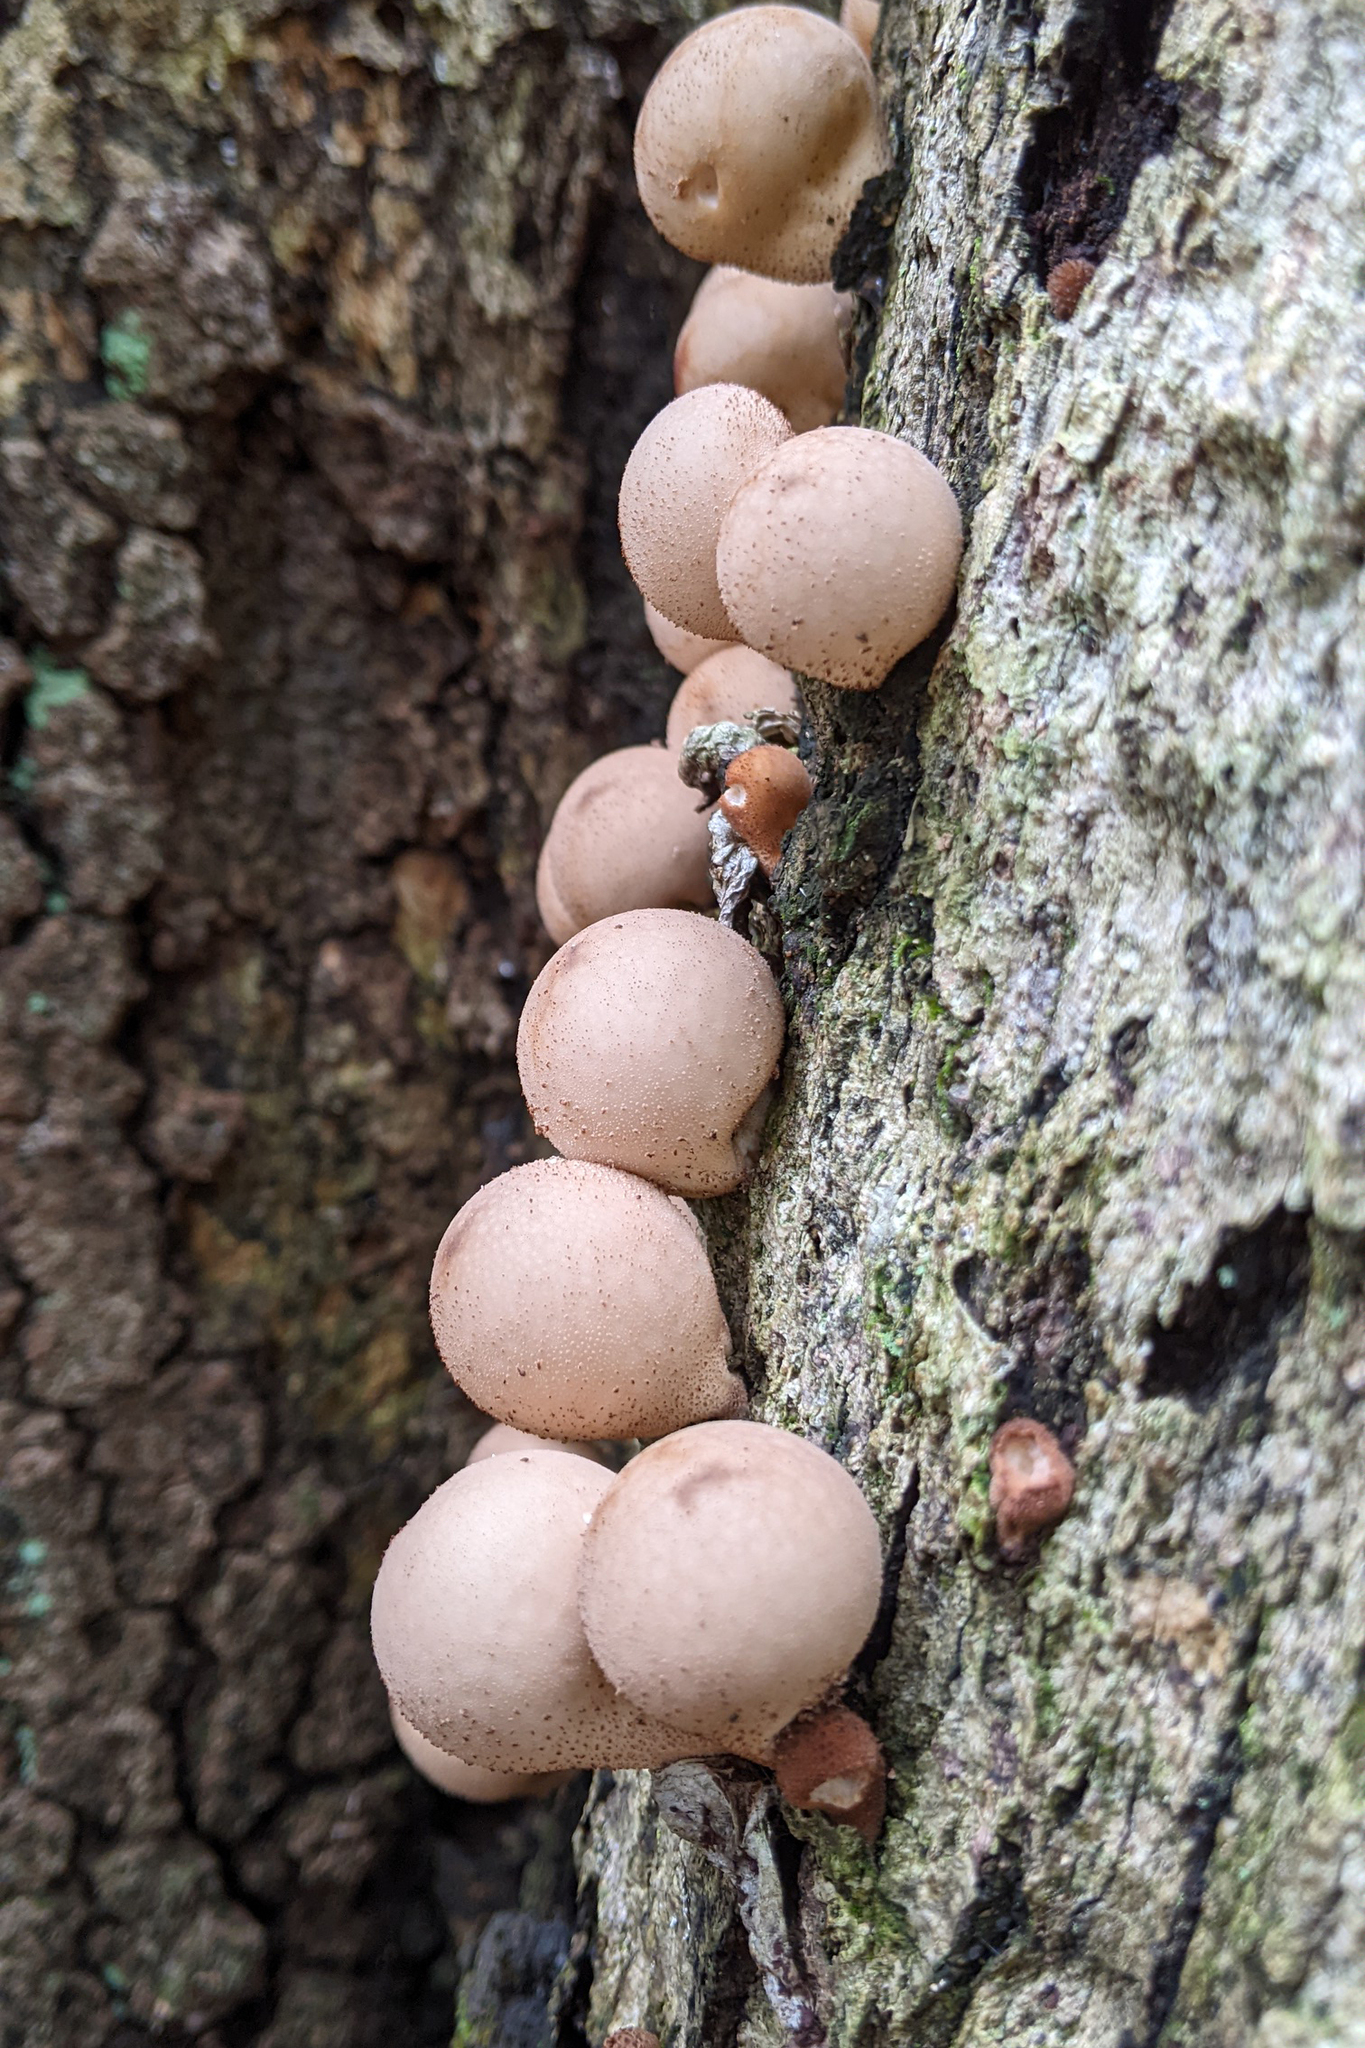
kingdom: Fungi
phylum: Basidiomycota
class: Agaricomycetes
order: Agaricales
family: Lycoperdaceae
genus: Apioperdon
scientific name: Apioperdon pyriforme
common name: Pear-shaped puffball
